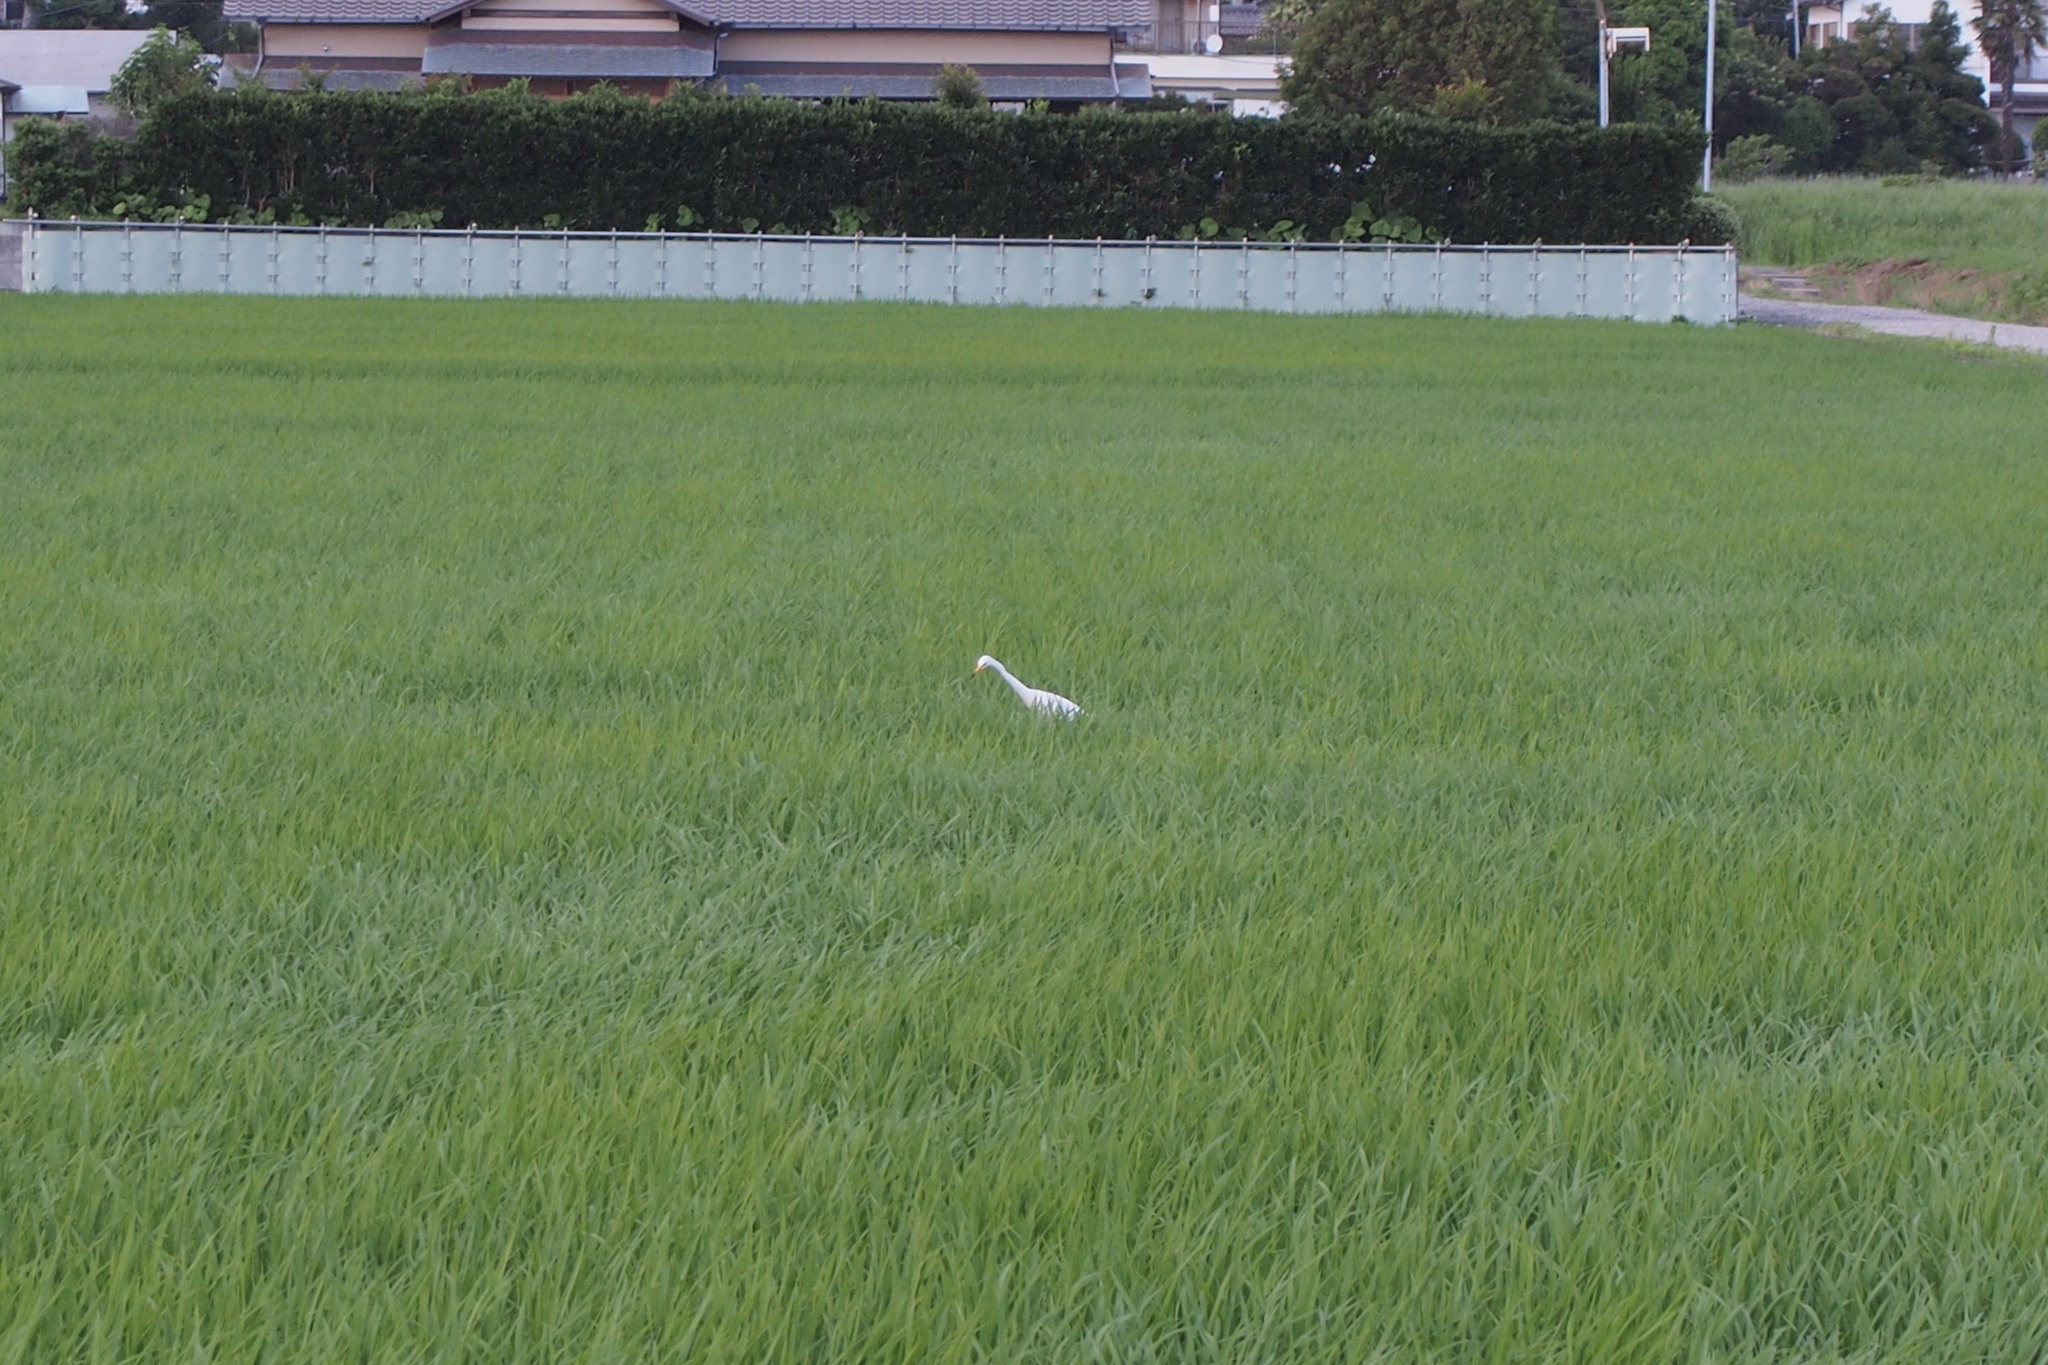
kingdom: Animalia
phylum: Chordata
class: Aves
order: Pelecaniformes
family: Ardeidae
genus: Egretta
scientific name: Egretta intermedia
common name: Intermediate egret
